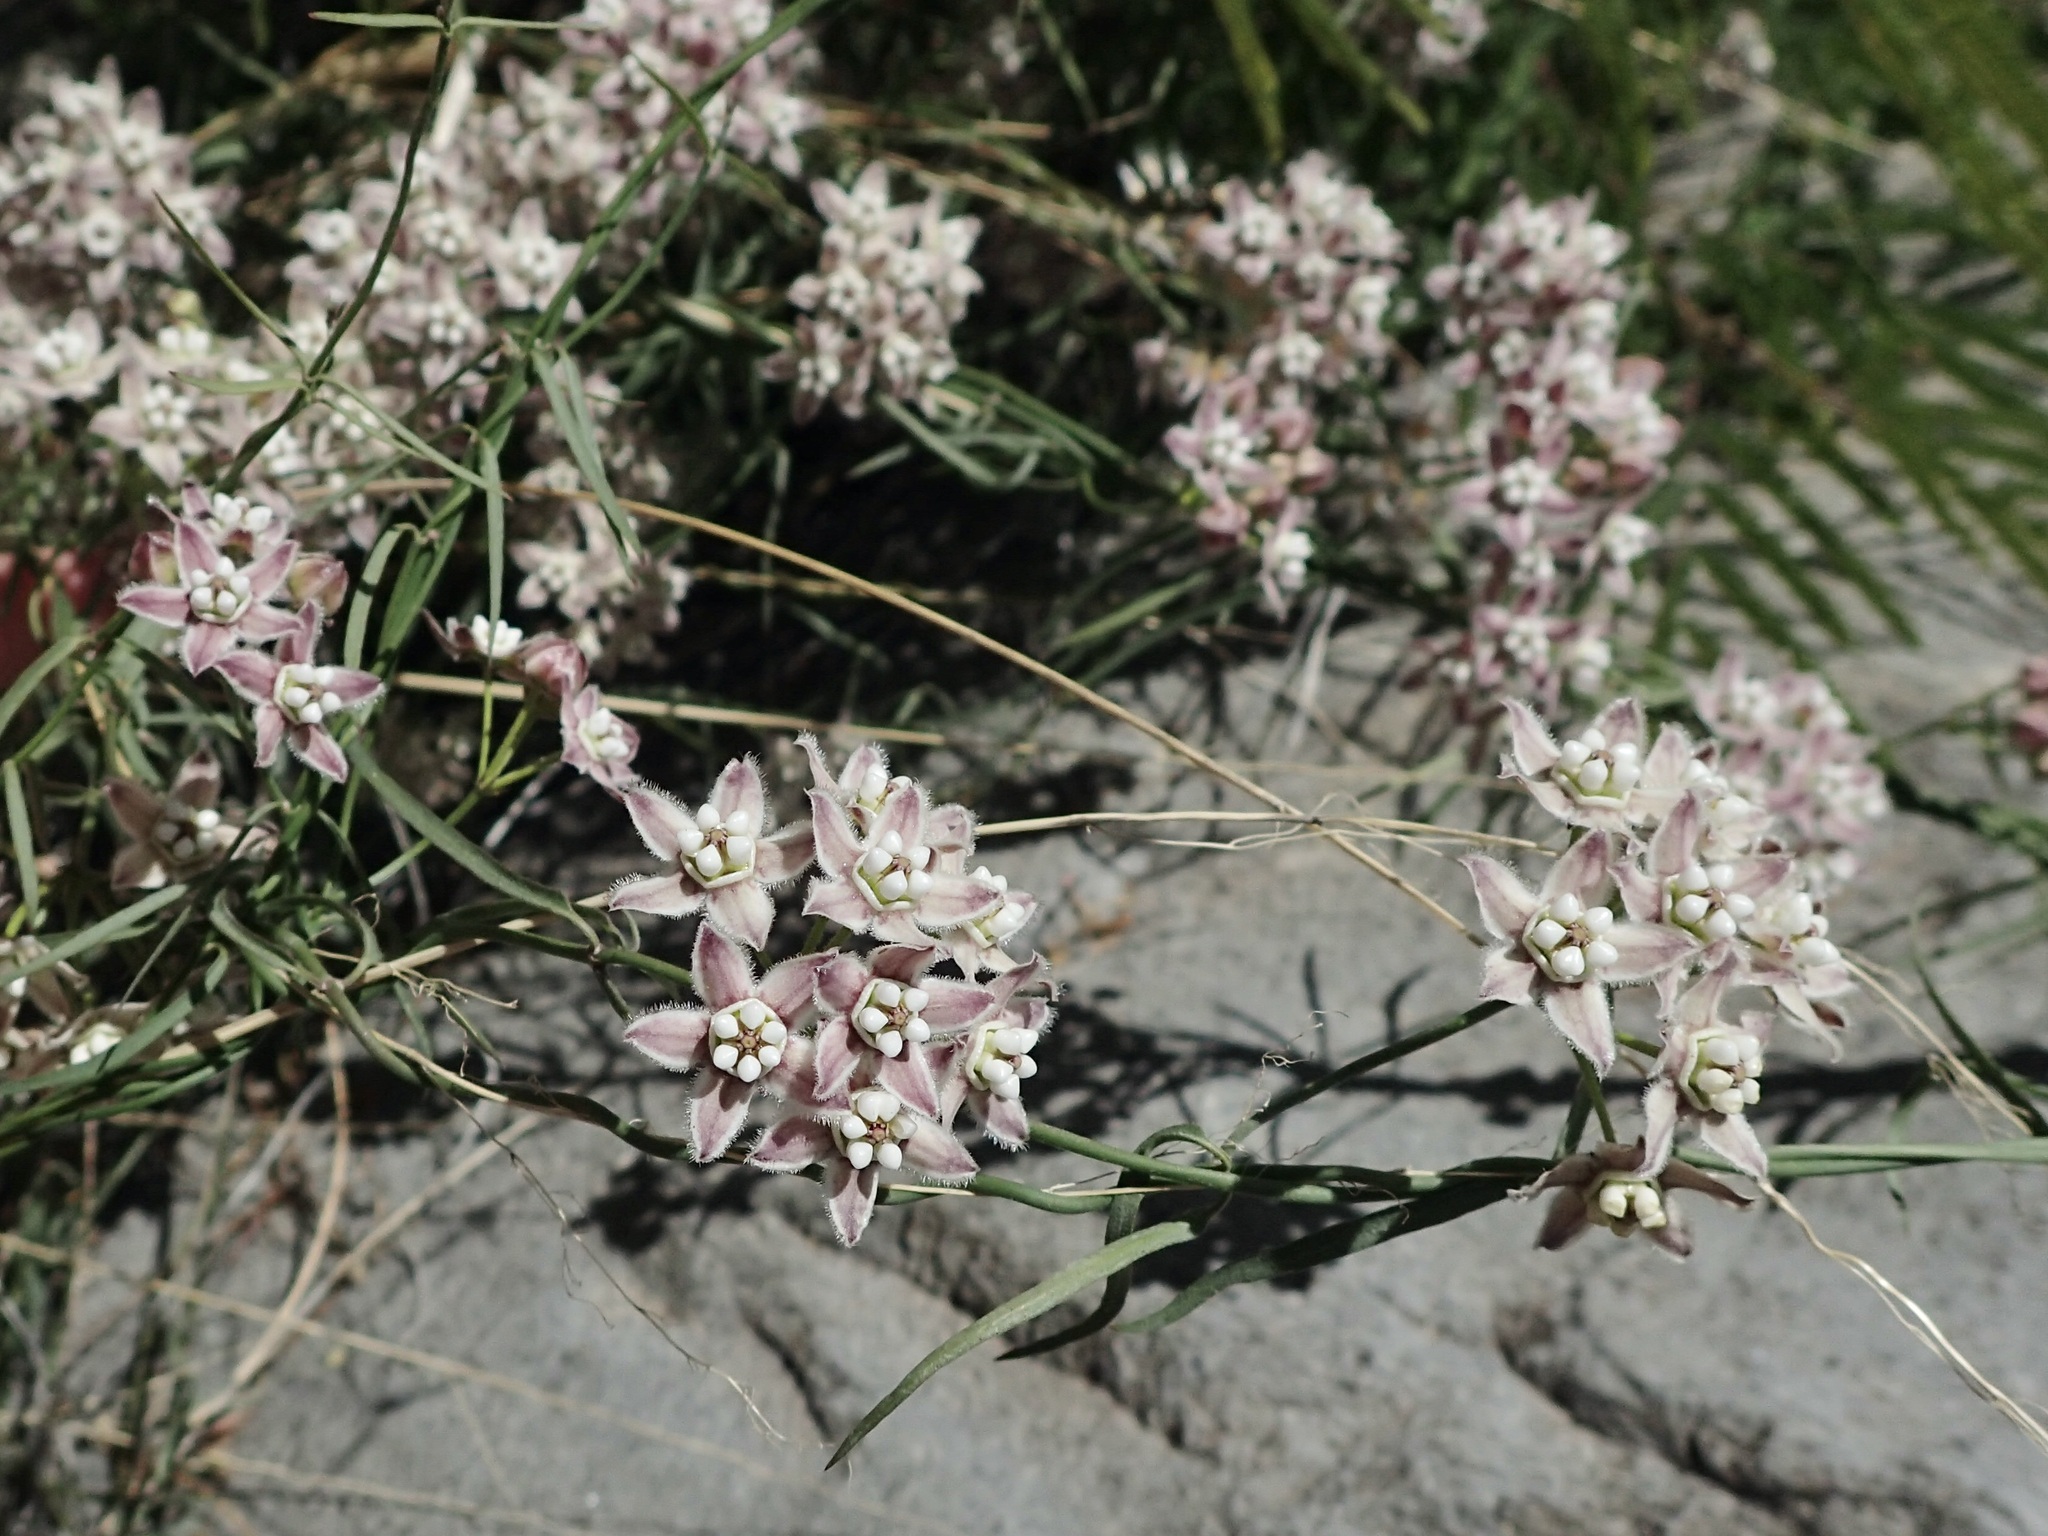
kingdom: Plantae
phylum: Tracheophyta
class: Magnoliopsida
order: Gentianales
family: Apocynaceae
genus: Funastrum
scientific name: Funastrum heterophyllum
